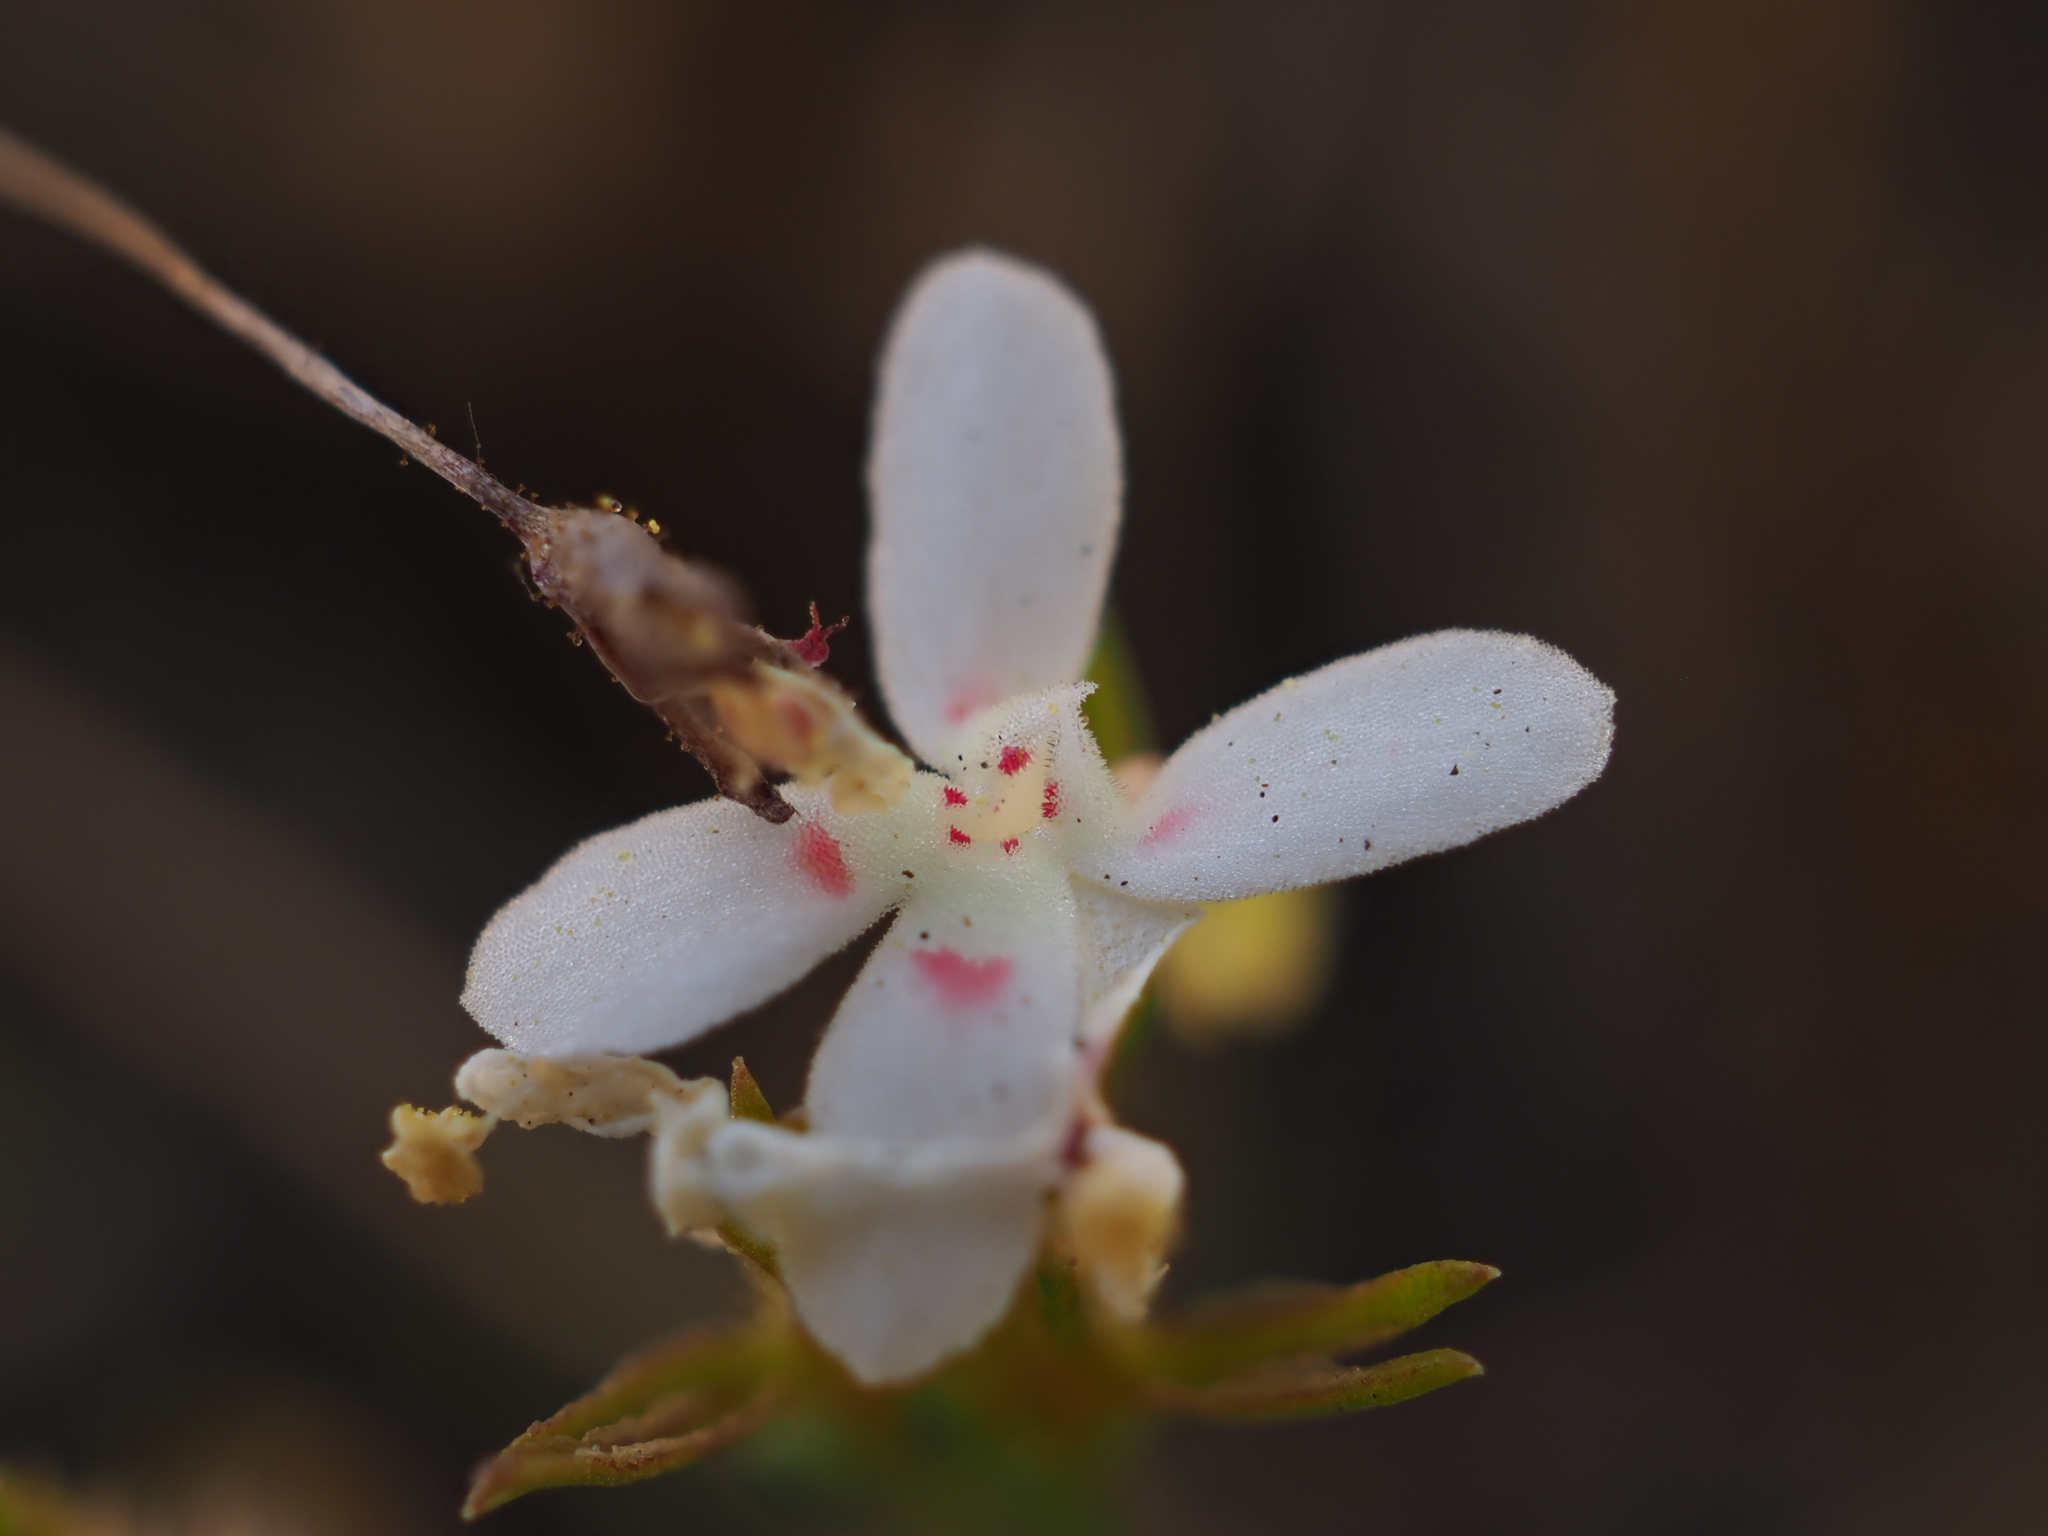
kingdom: Plantae
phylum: Tracheophyta
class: Magnoliopsida
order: Asterales
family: Stylidiaceae
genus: Stylidium
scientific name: Stylidium guttatum
